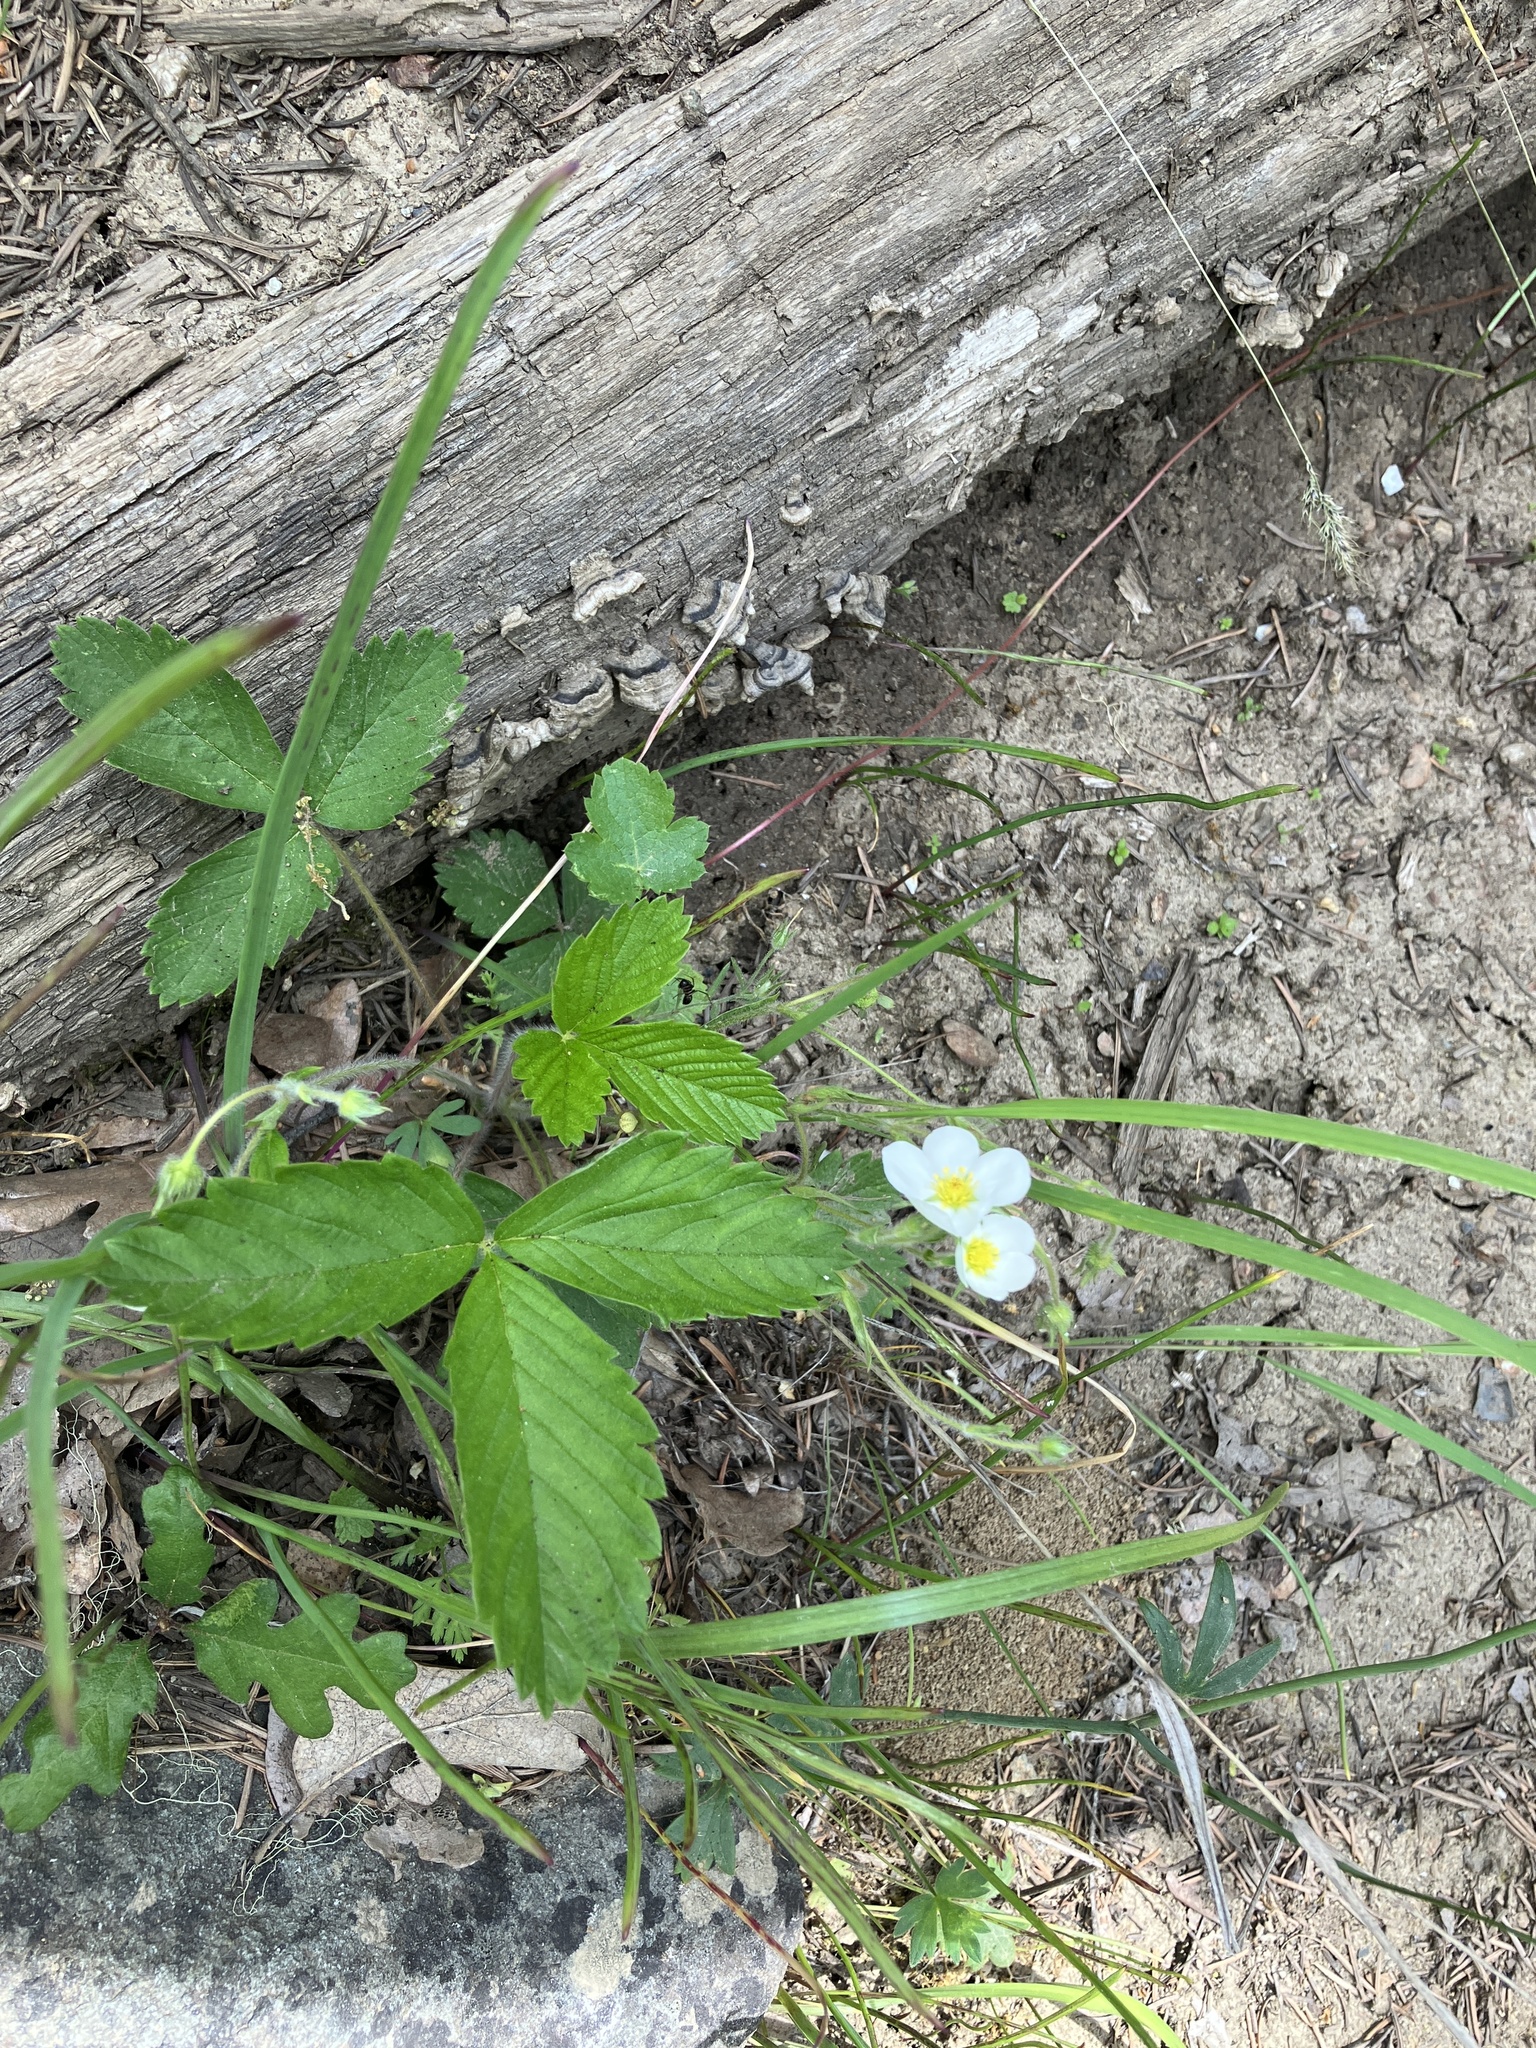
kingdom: Plantae
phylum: Tracheophyta
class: Magnoliopsida
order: Rosales
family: Rosaceae
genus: Fragaria
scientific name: Fragaria vesca
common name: Wild strawberry
